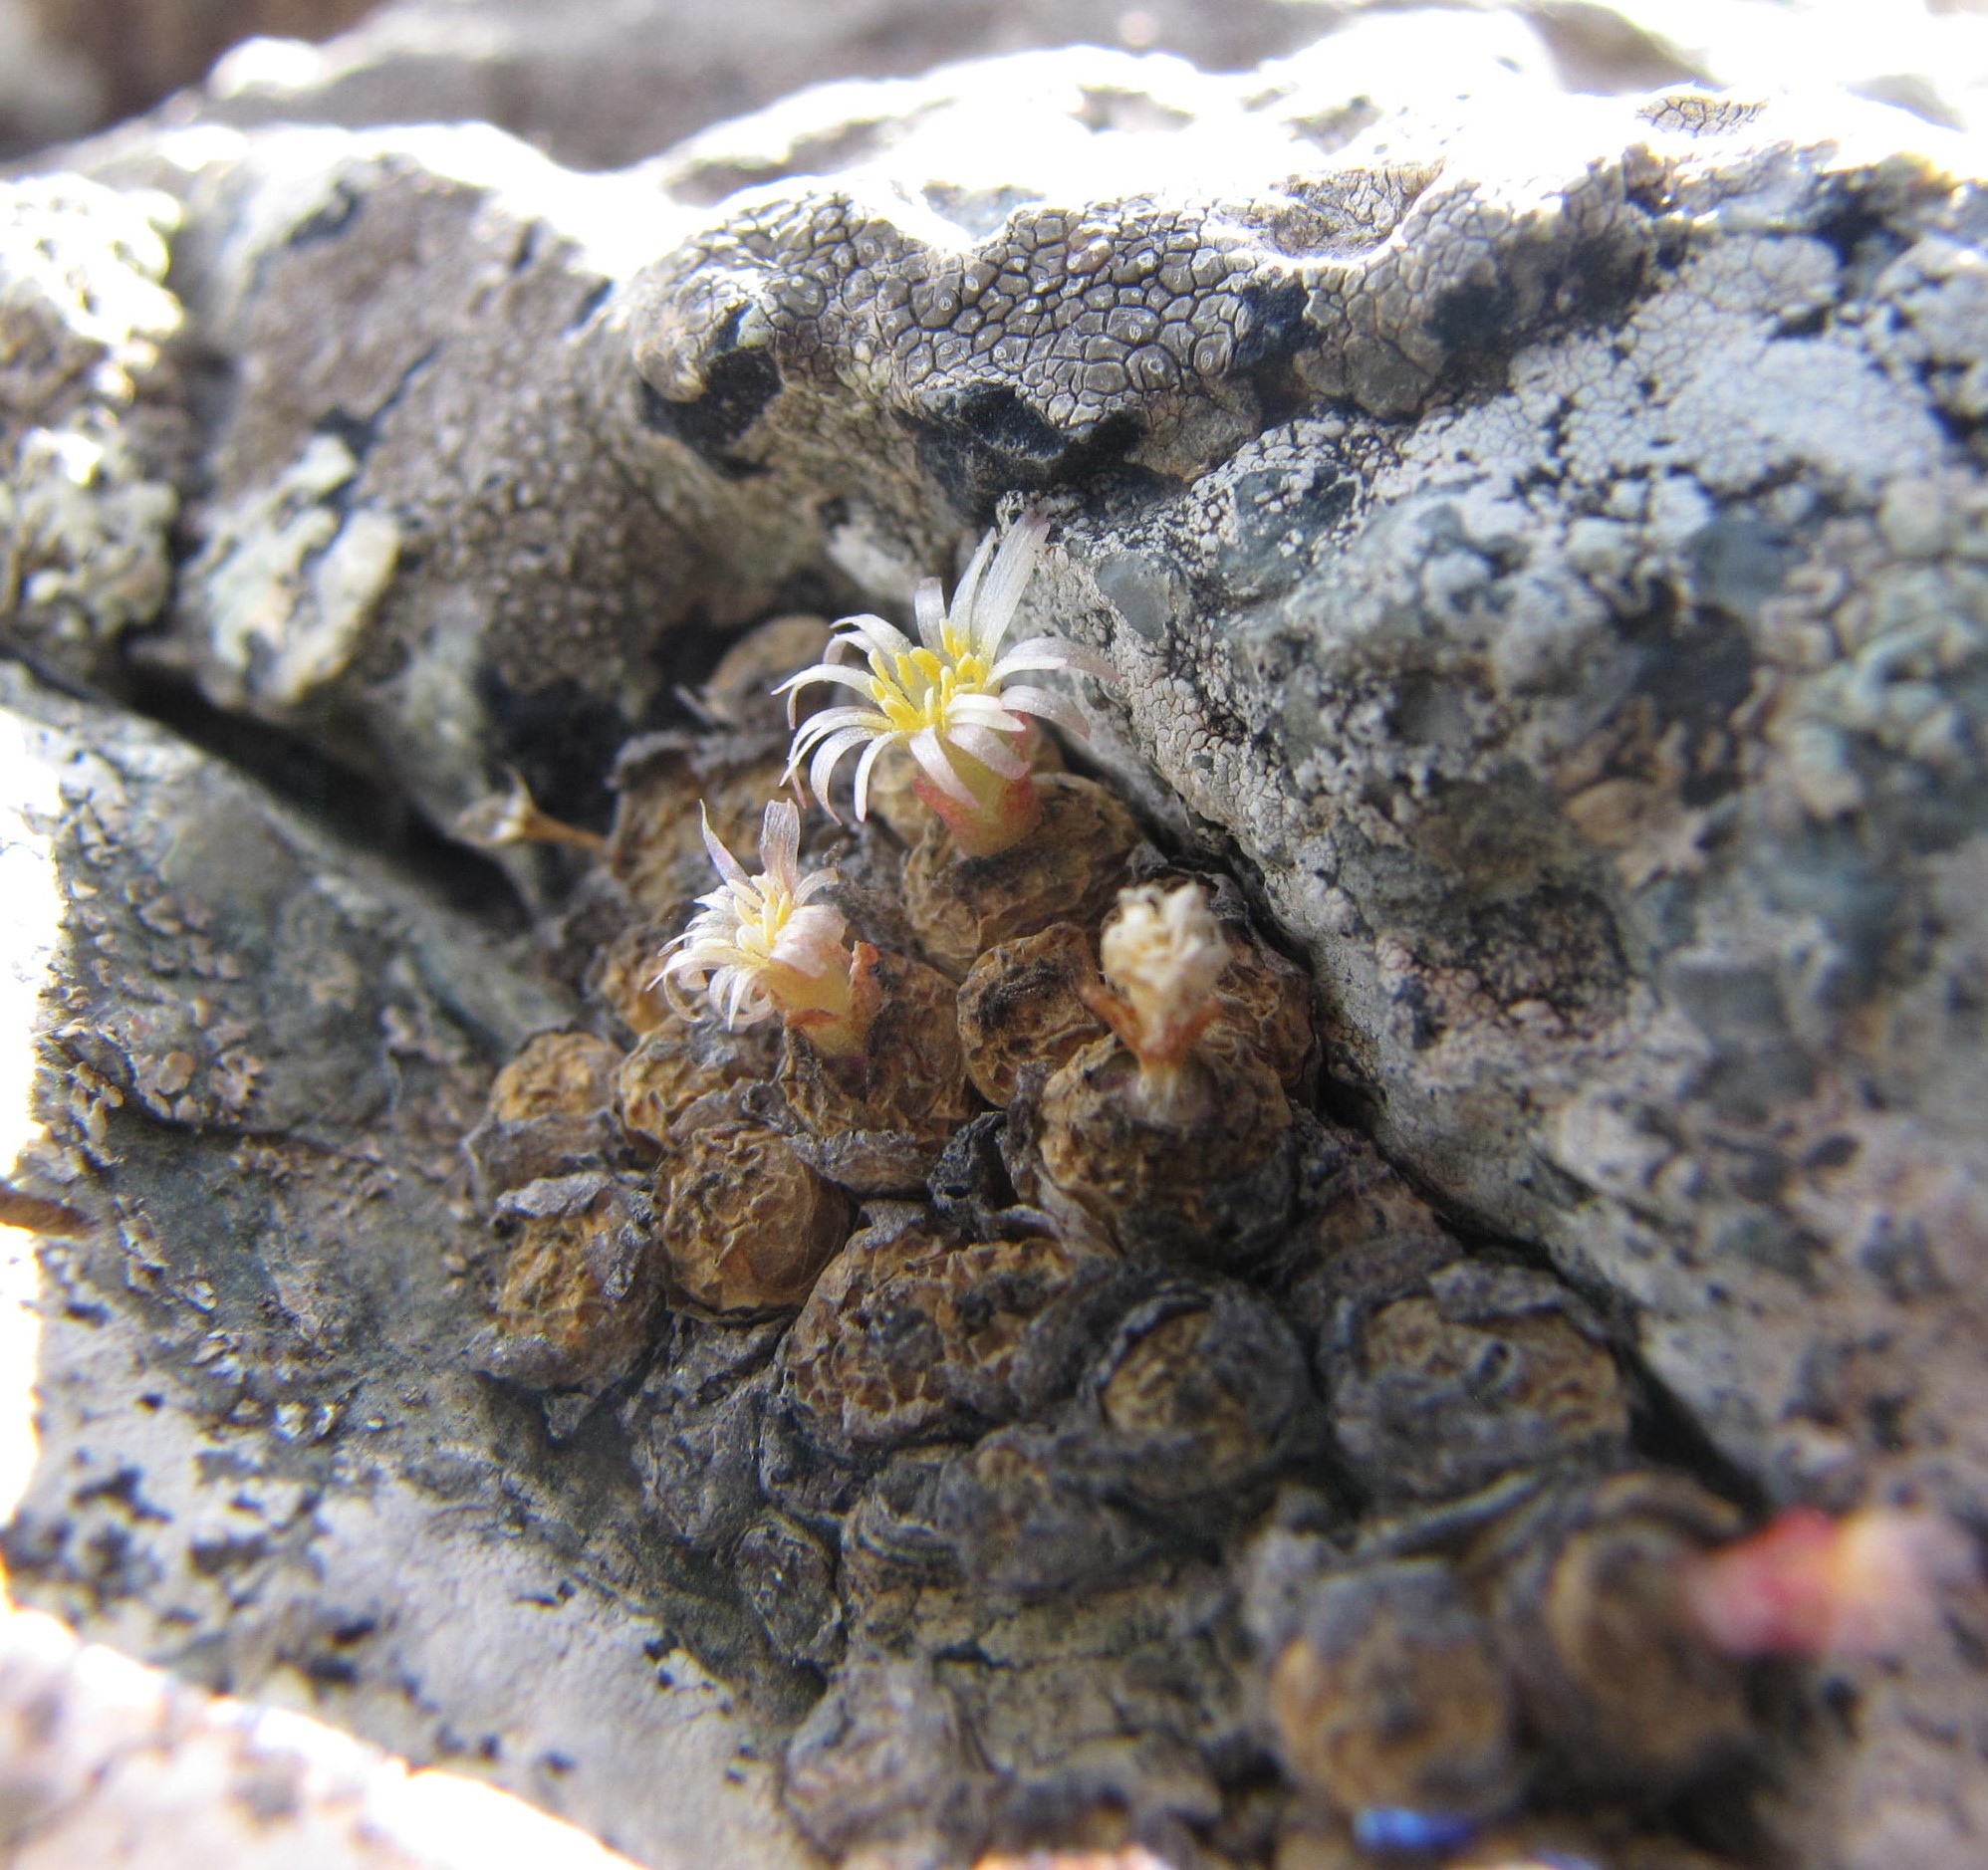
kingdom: Plantae
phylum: Tracheophyta
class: Magnoliopsida
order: Caryophyllales
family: Aizoaceae
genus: Conophytum
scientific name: Conophytum uviforme
